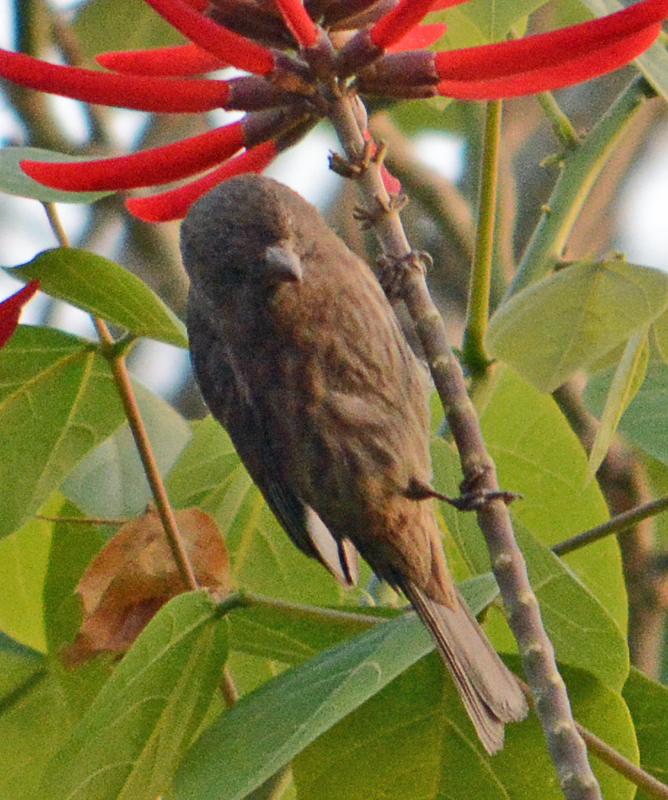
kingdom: Animalia
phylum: Chordata
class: Aves
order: Passeriformes
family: Fringillidae
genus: Haemorhous
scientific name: Haemorhous mexicanus
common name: House finch
